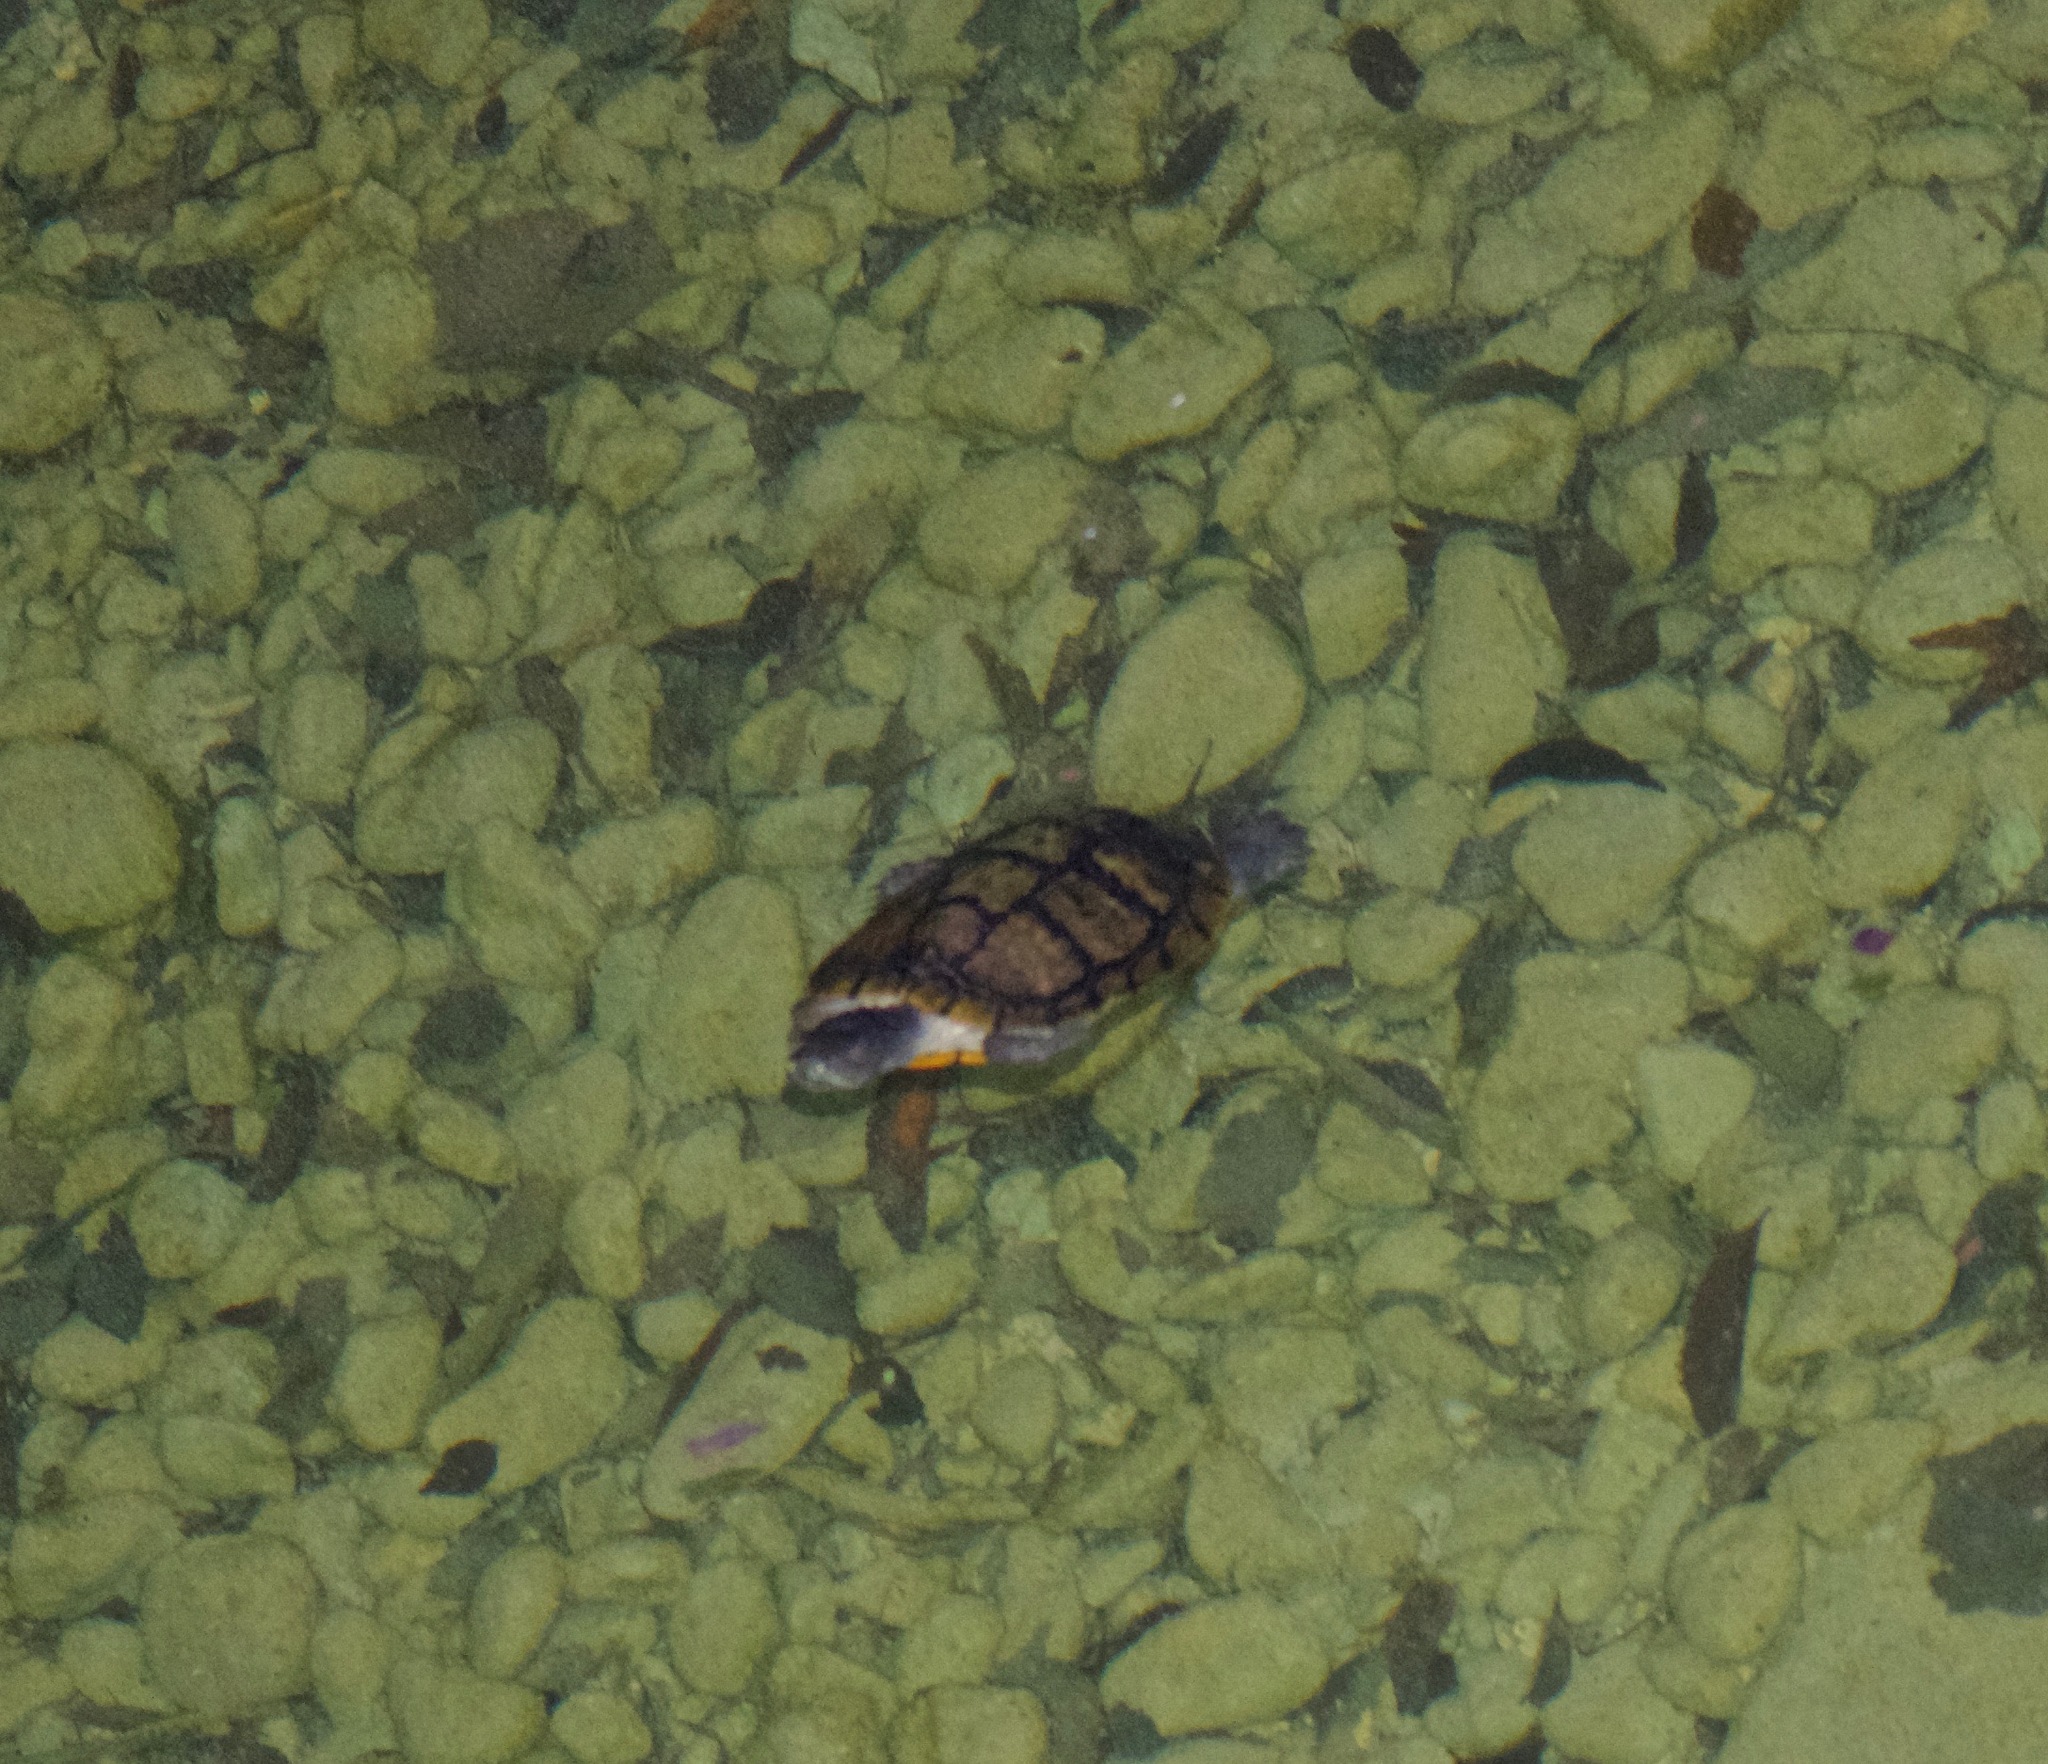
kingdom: Animalia
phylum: Chordata
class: Testudines
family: Emydidae
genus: Trachemys
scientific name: Trachemys scripta
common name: Slider
